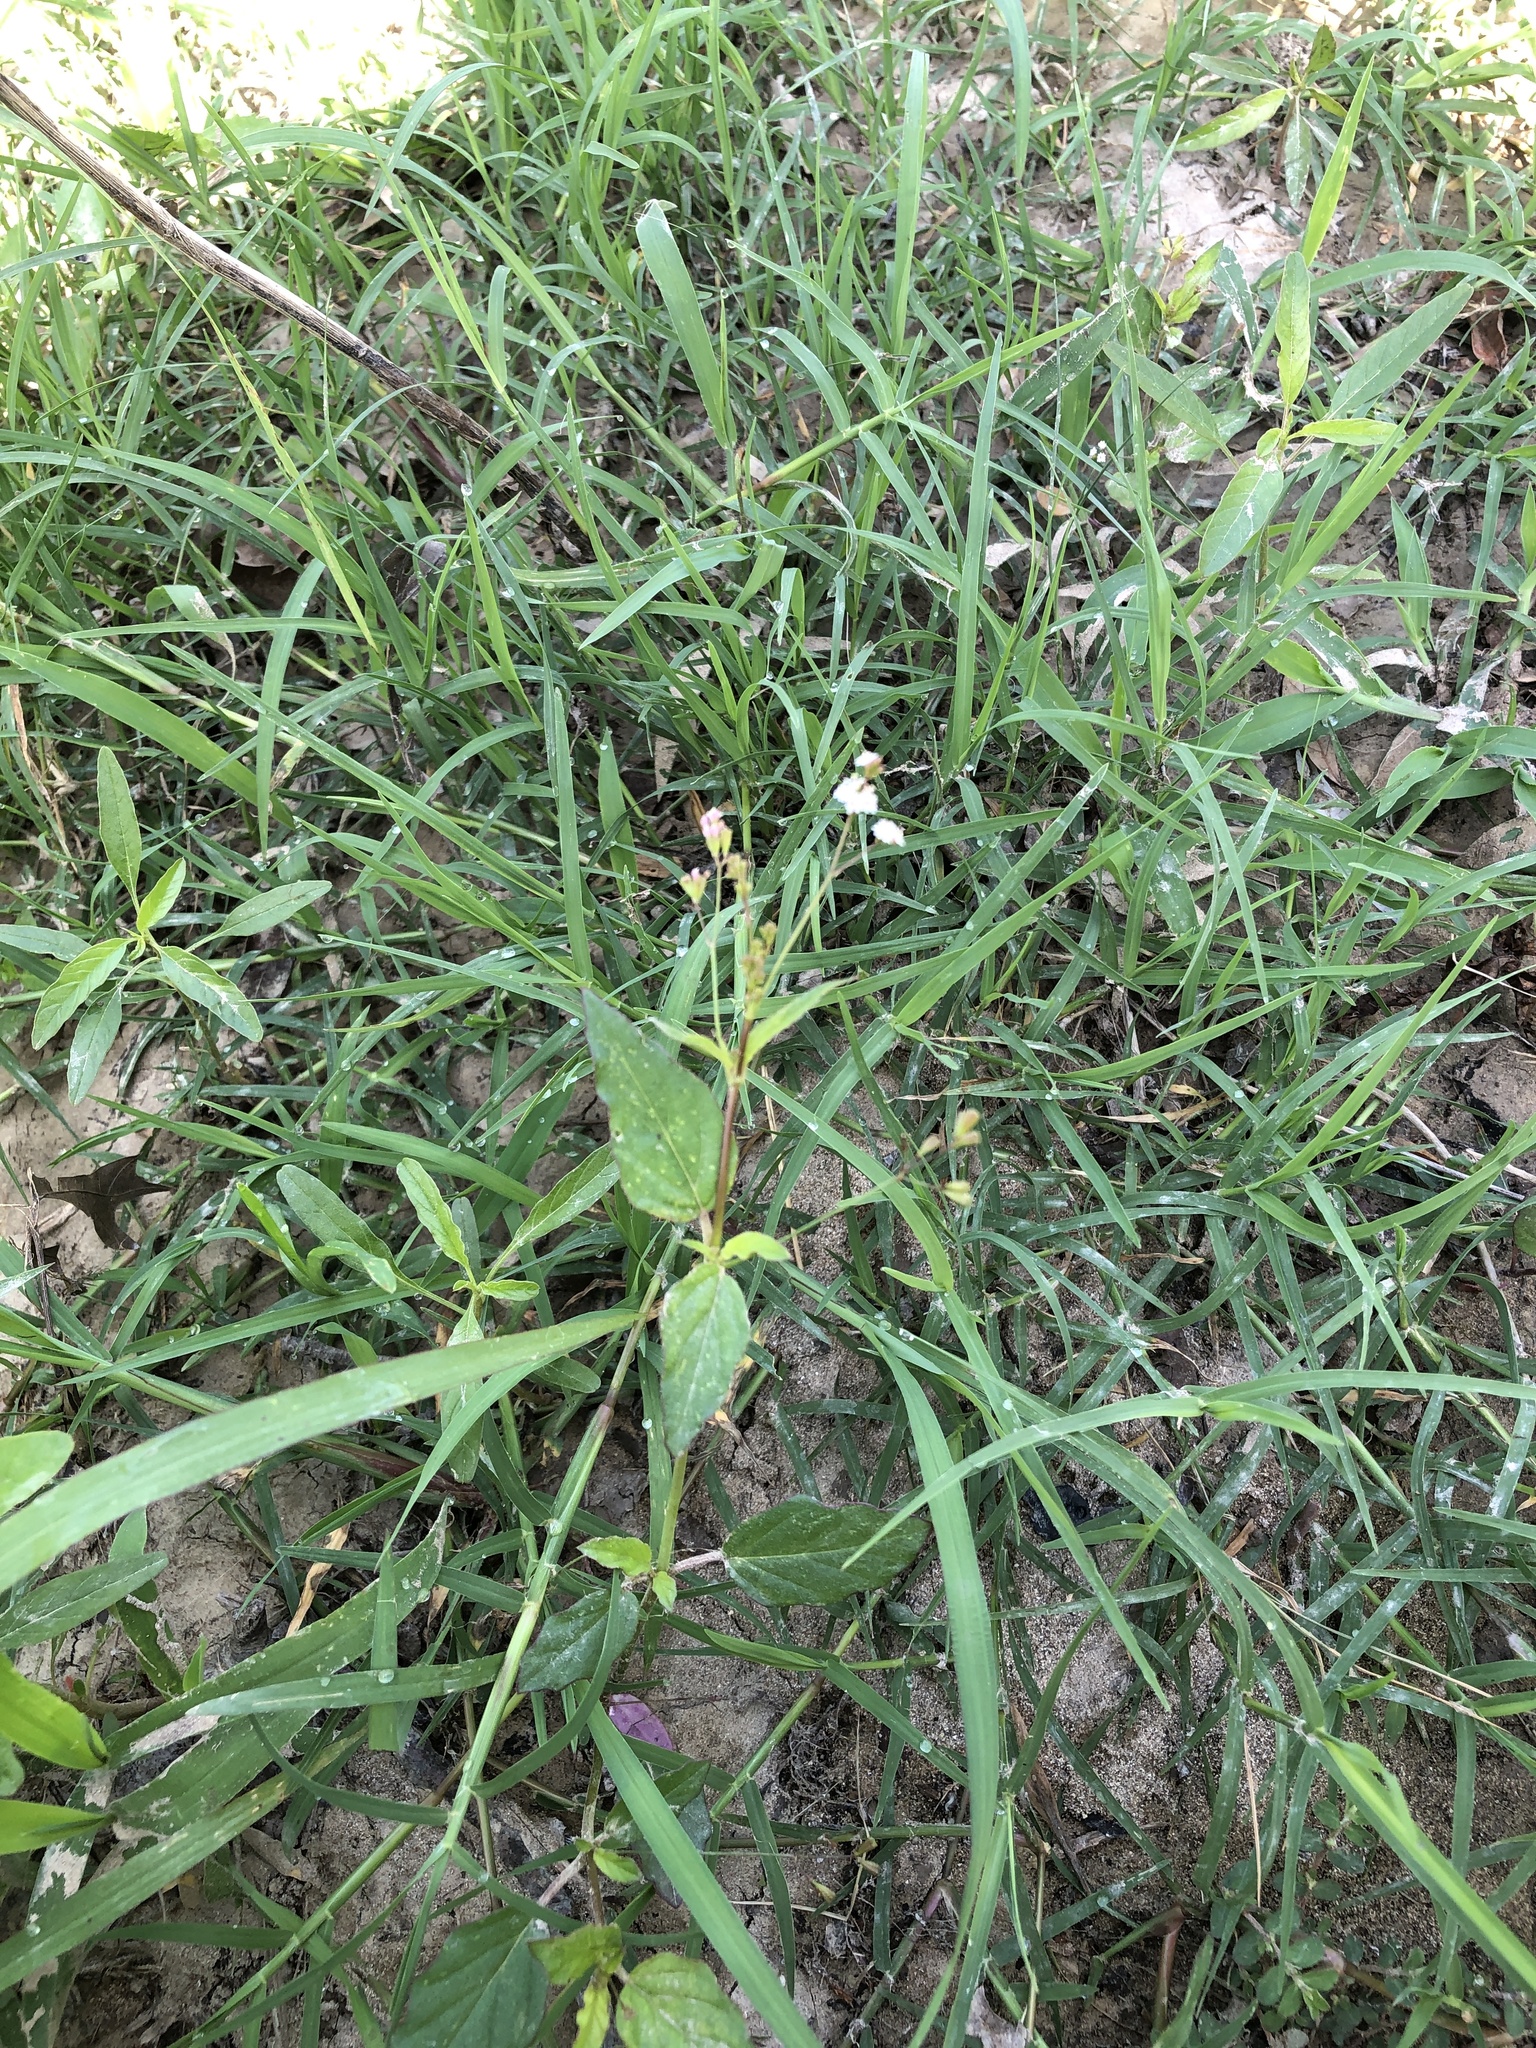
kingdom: Plantae
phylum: Tracheophyta
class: Magnoliopsida
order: Caryophyllales
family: Nyctaginaceae
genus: Boerhavia
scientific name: Boerhavia erecta
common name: Erect spiderling
